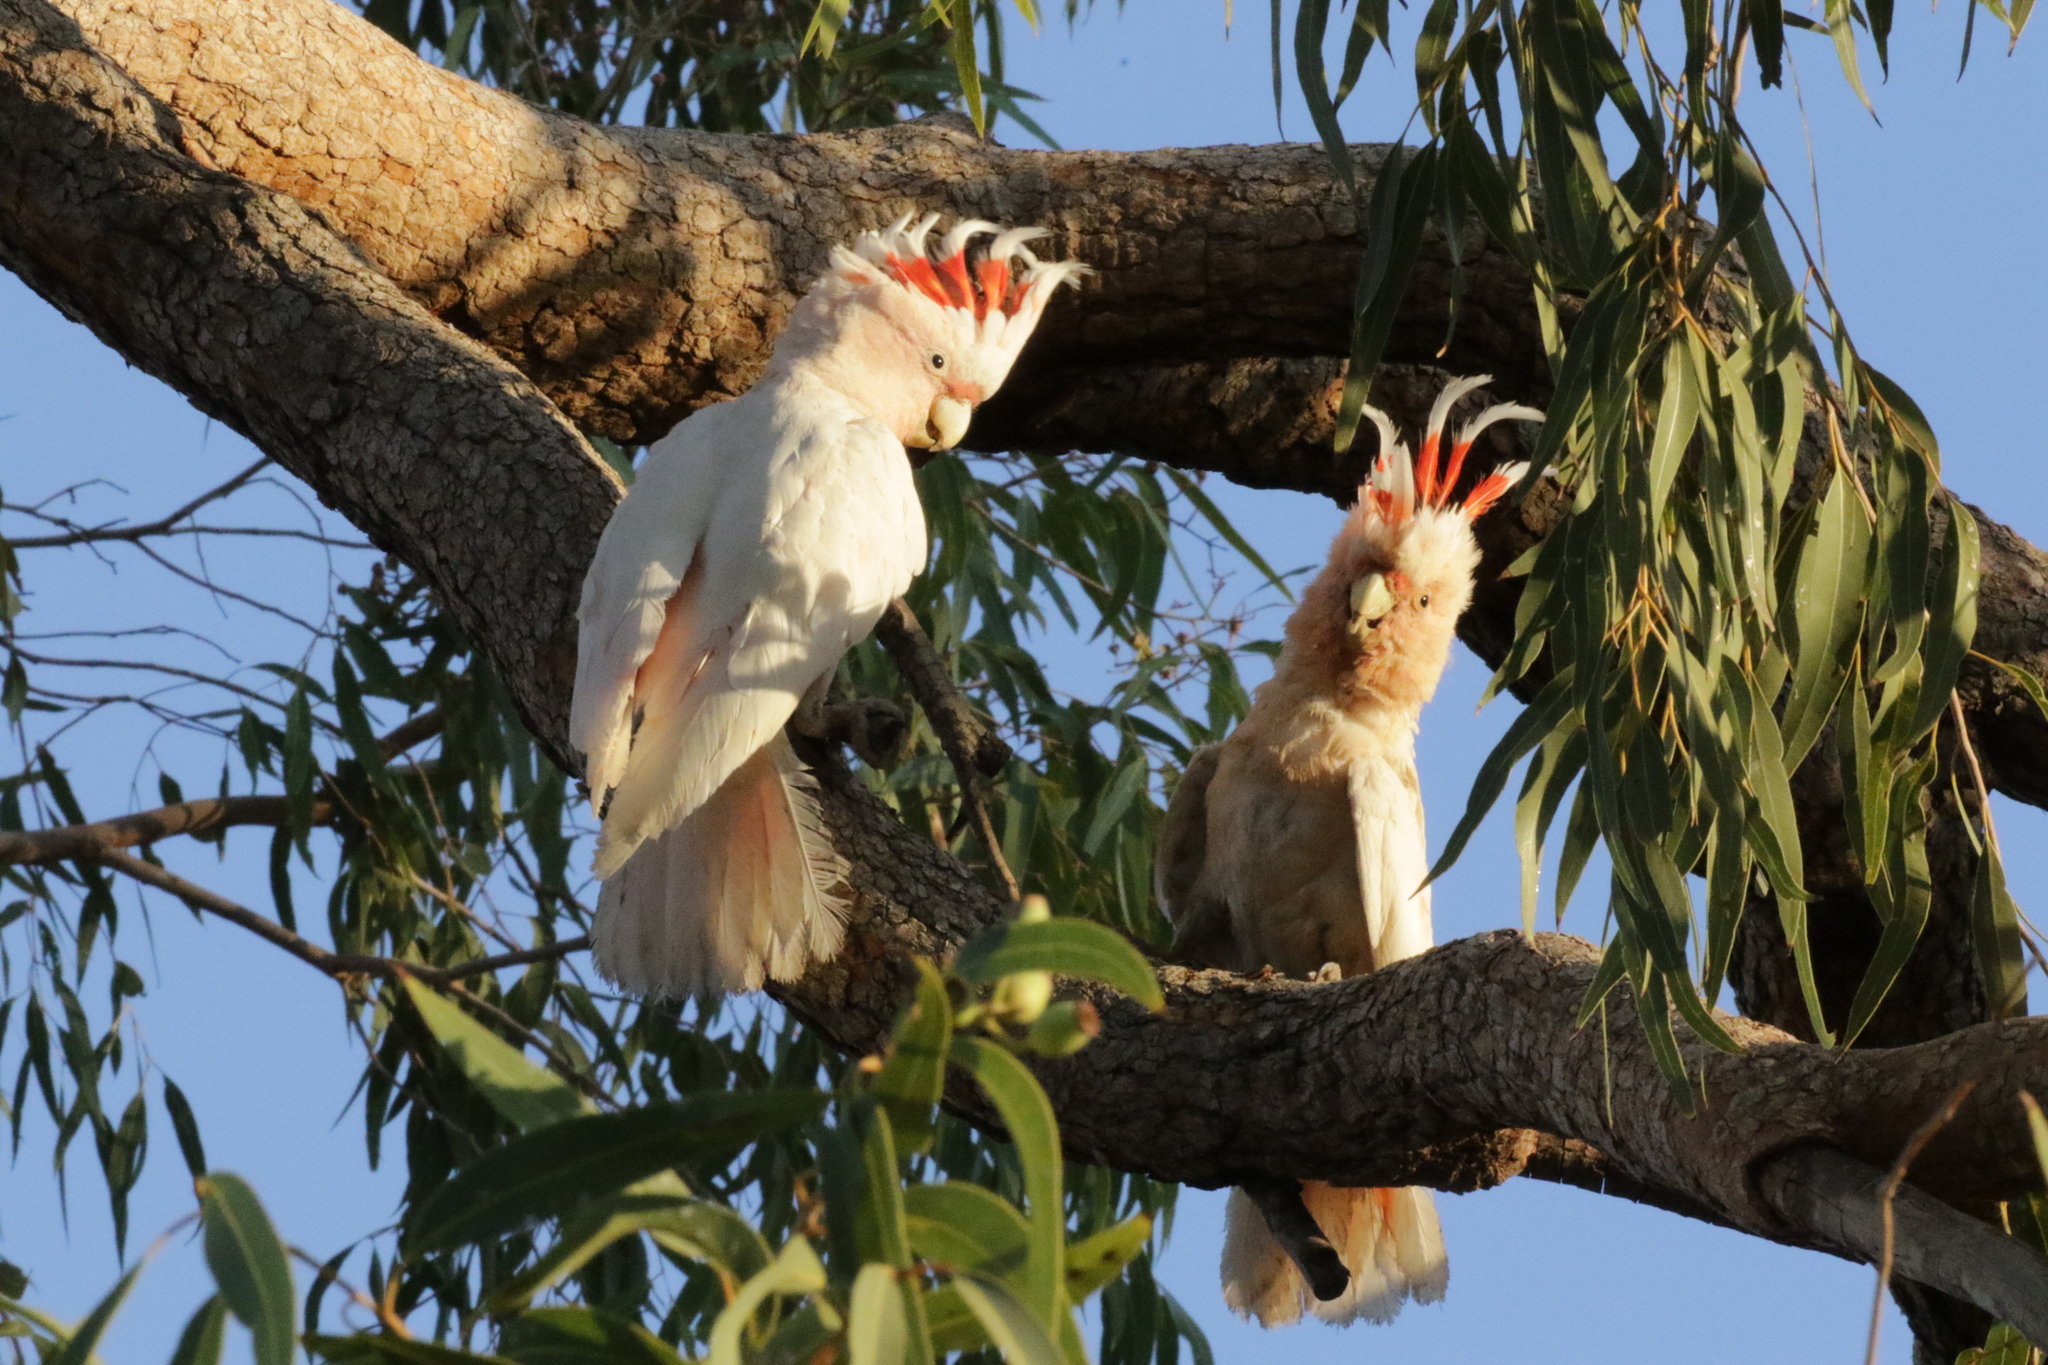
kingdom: Animalia
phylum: Chordata
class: Aves
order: Psittaciformes
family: Psittacidae
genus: Cacatua
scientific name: Cacatua leadbeateri
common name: Major mitchell's cockatoo
